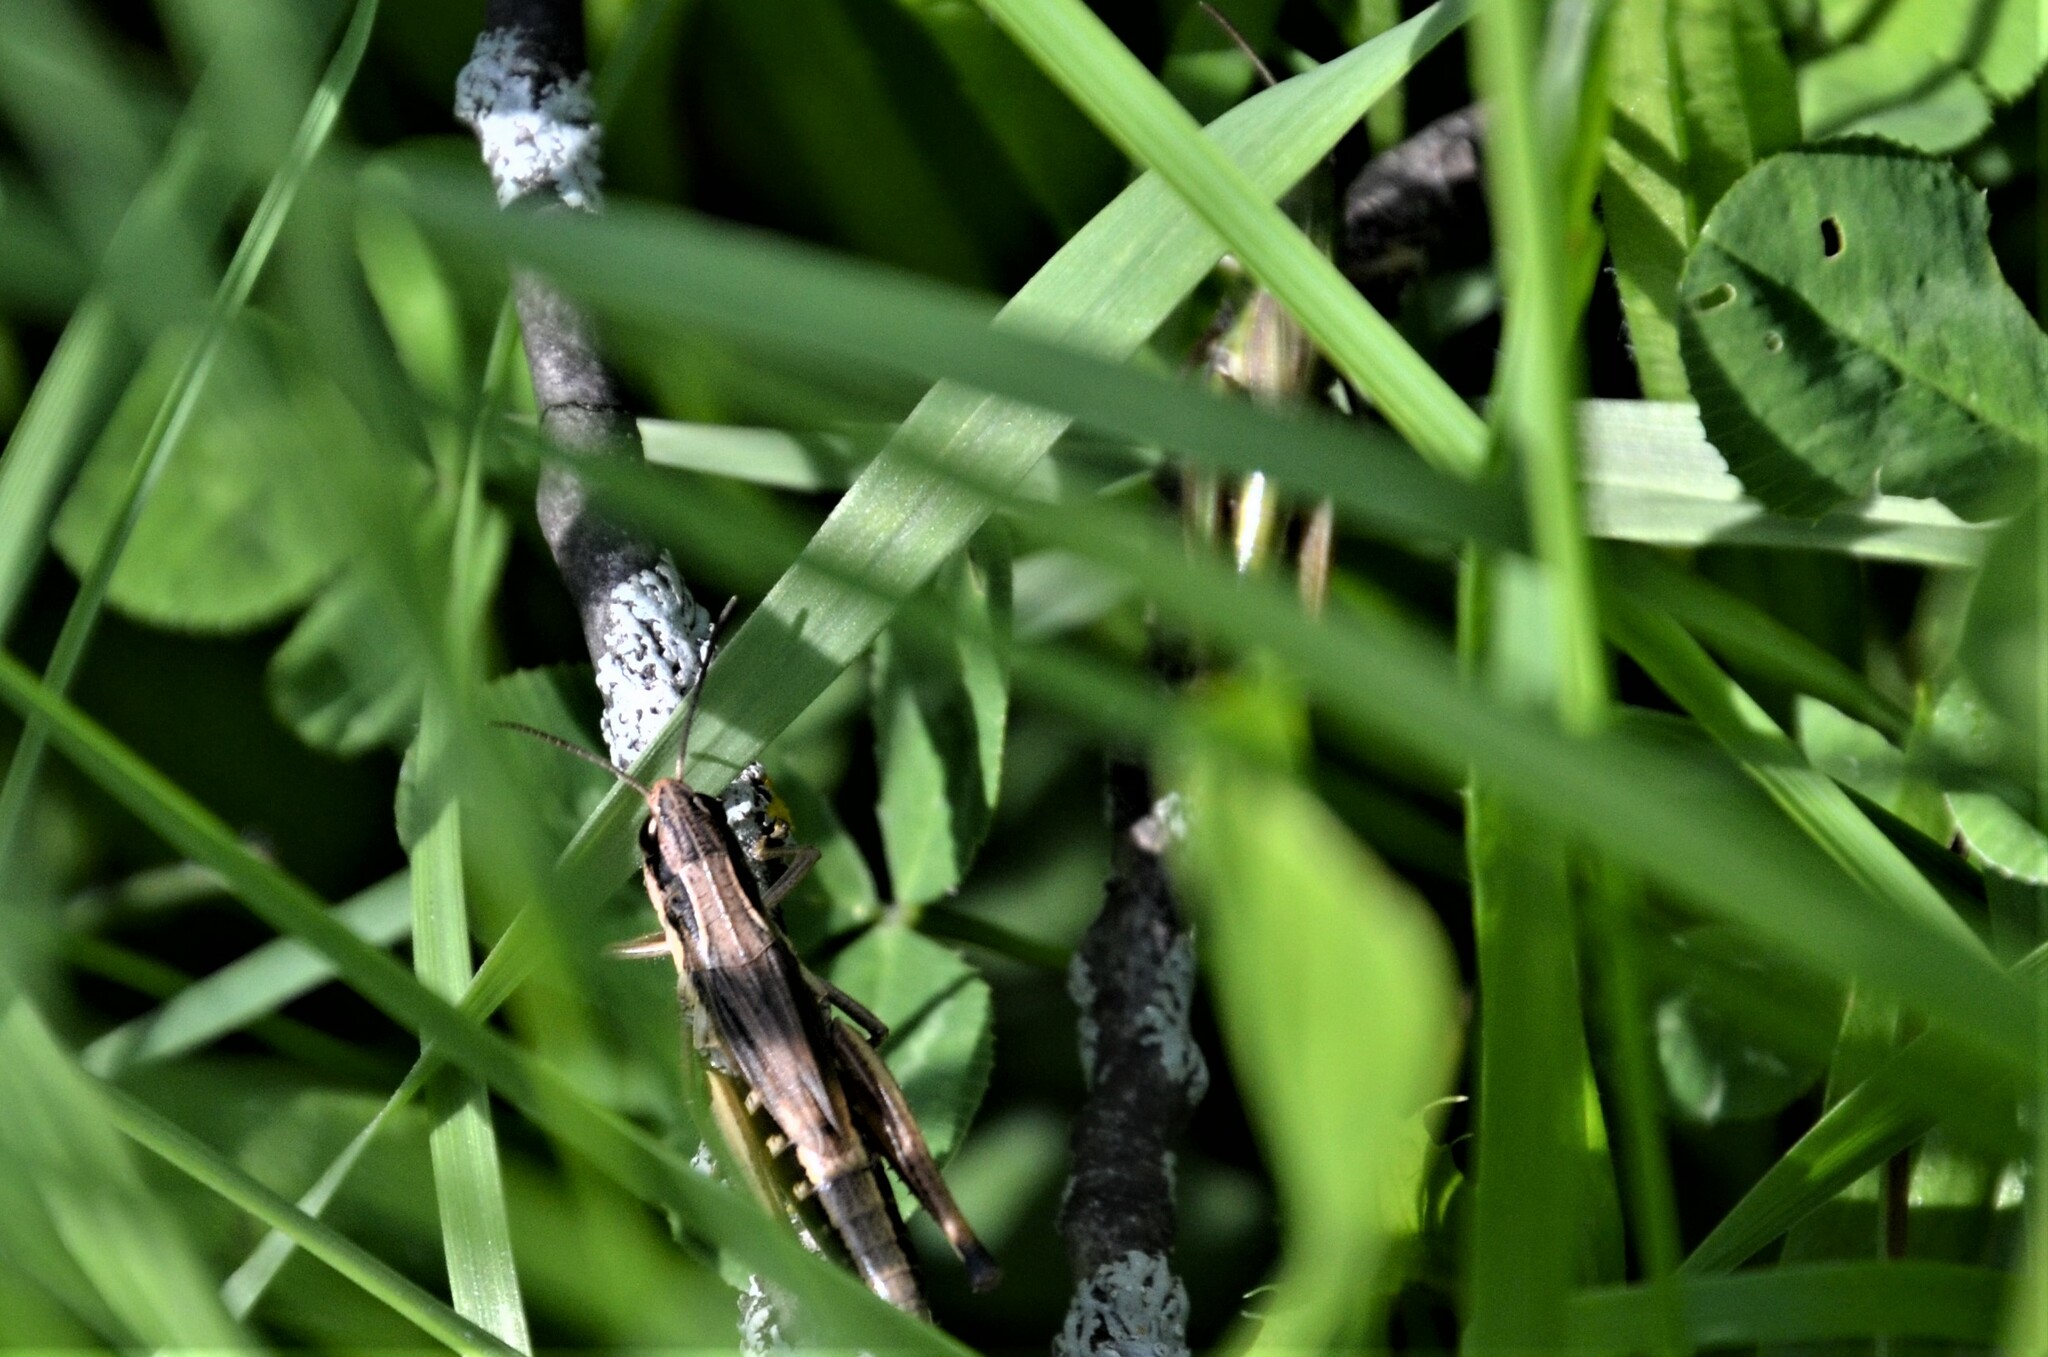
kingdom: Animalia
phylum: Arthropoda
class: Insecta
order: Orthoptera
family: Acrididae
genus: Pseudochorthippus
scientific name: Pseudochorthippus parallelus
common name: Meadow grasshopper
